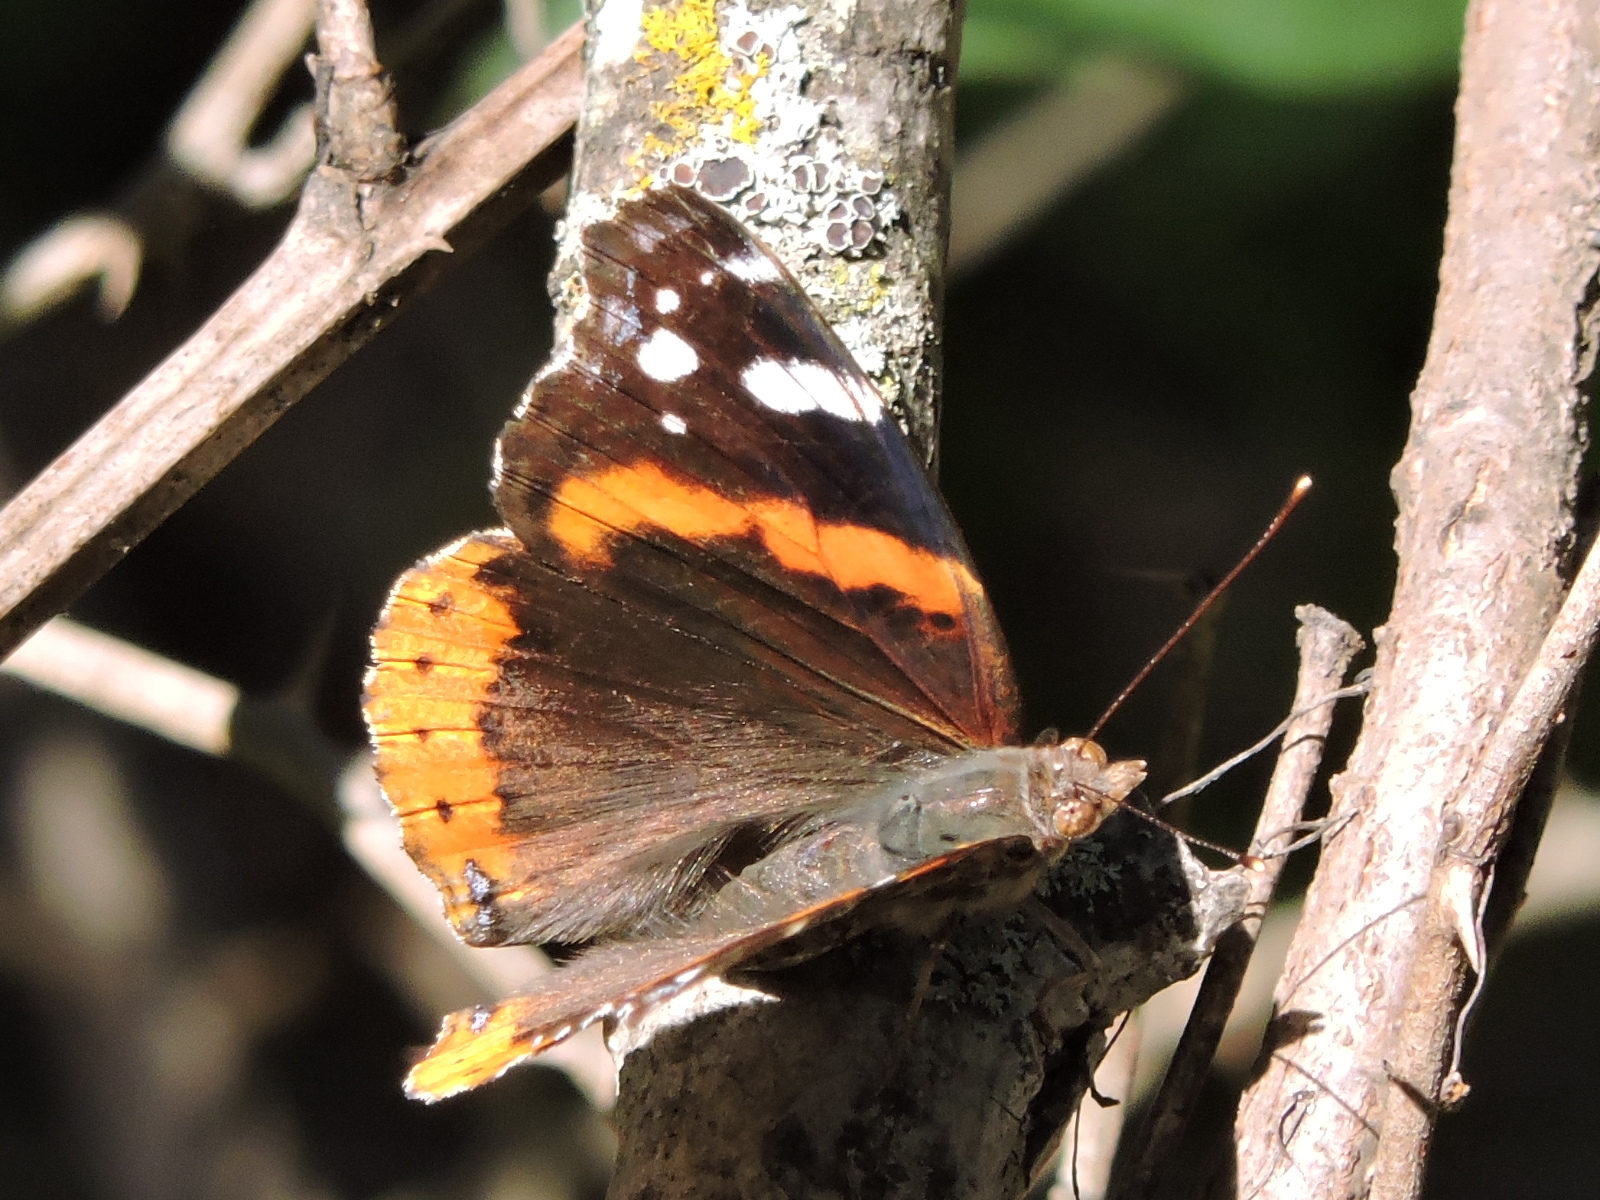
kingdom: Animalia
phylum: Arthropoda
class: Insecta
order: Lepidoptera
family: Nymphalidae
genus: Vanessa
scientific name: Vanessa atalanta
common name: Red admiral
